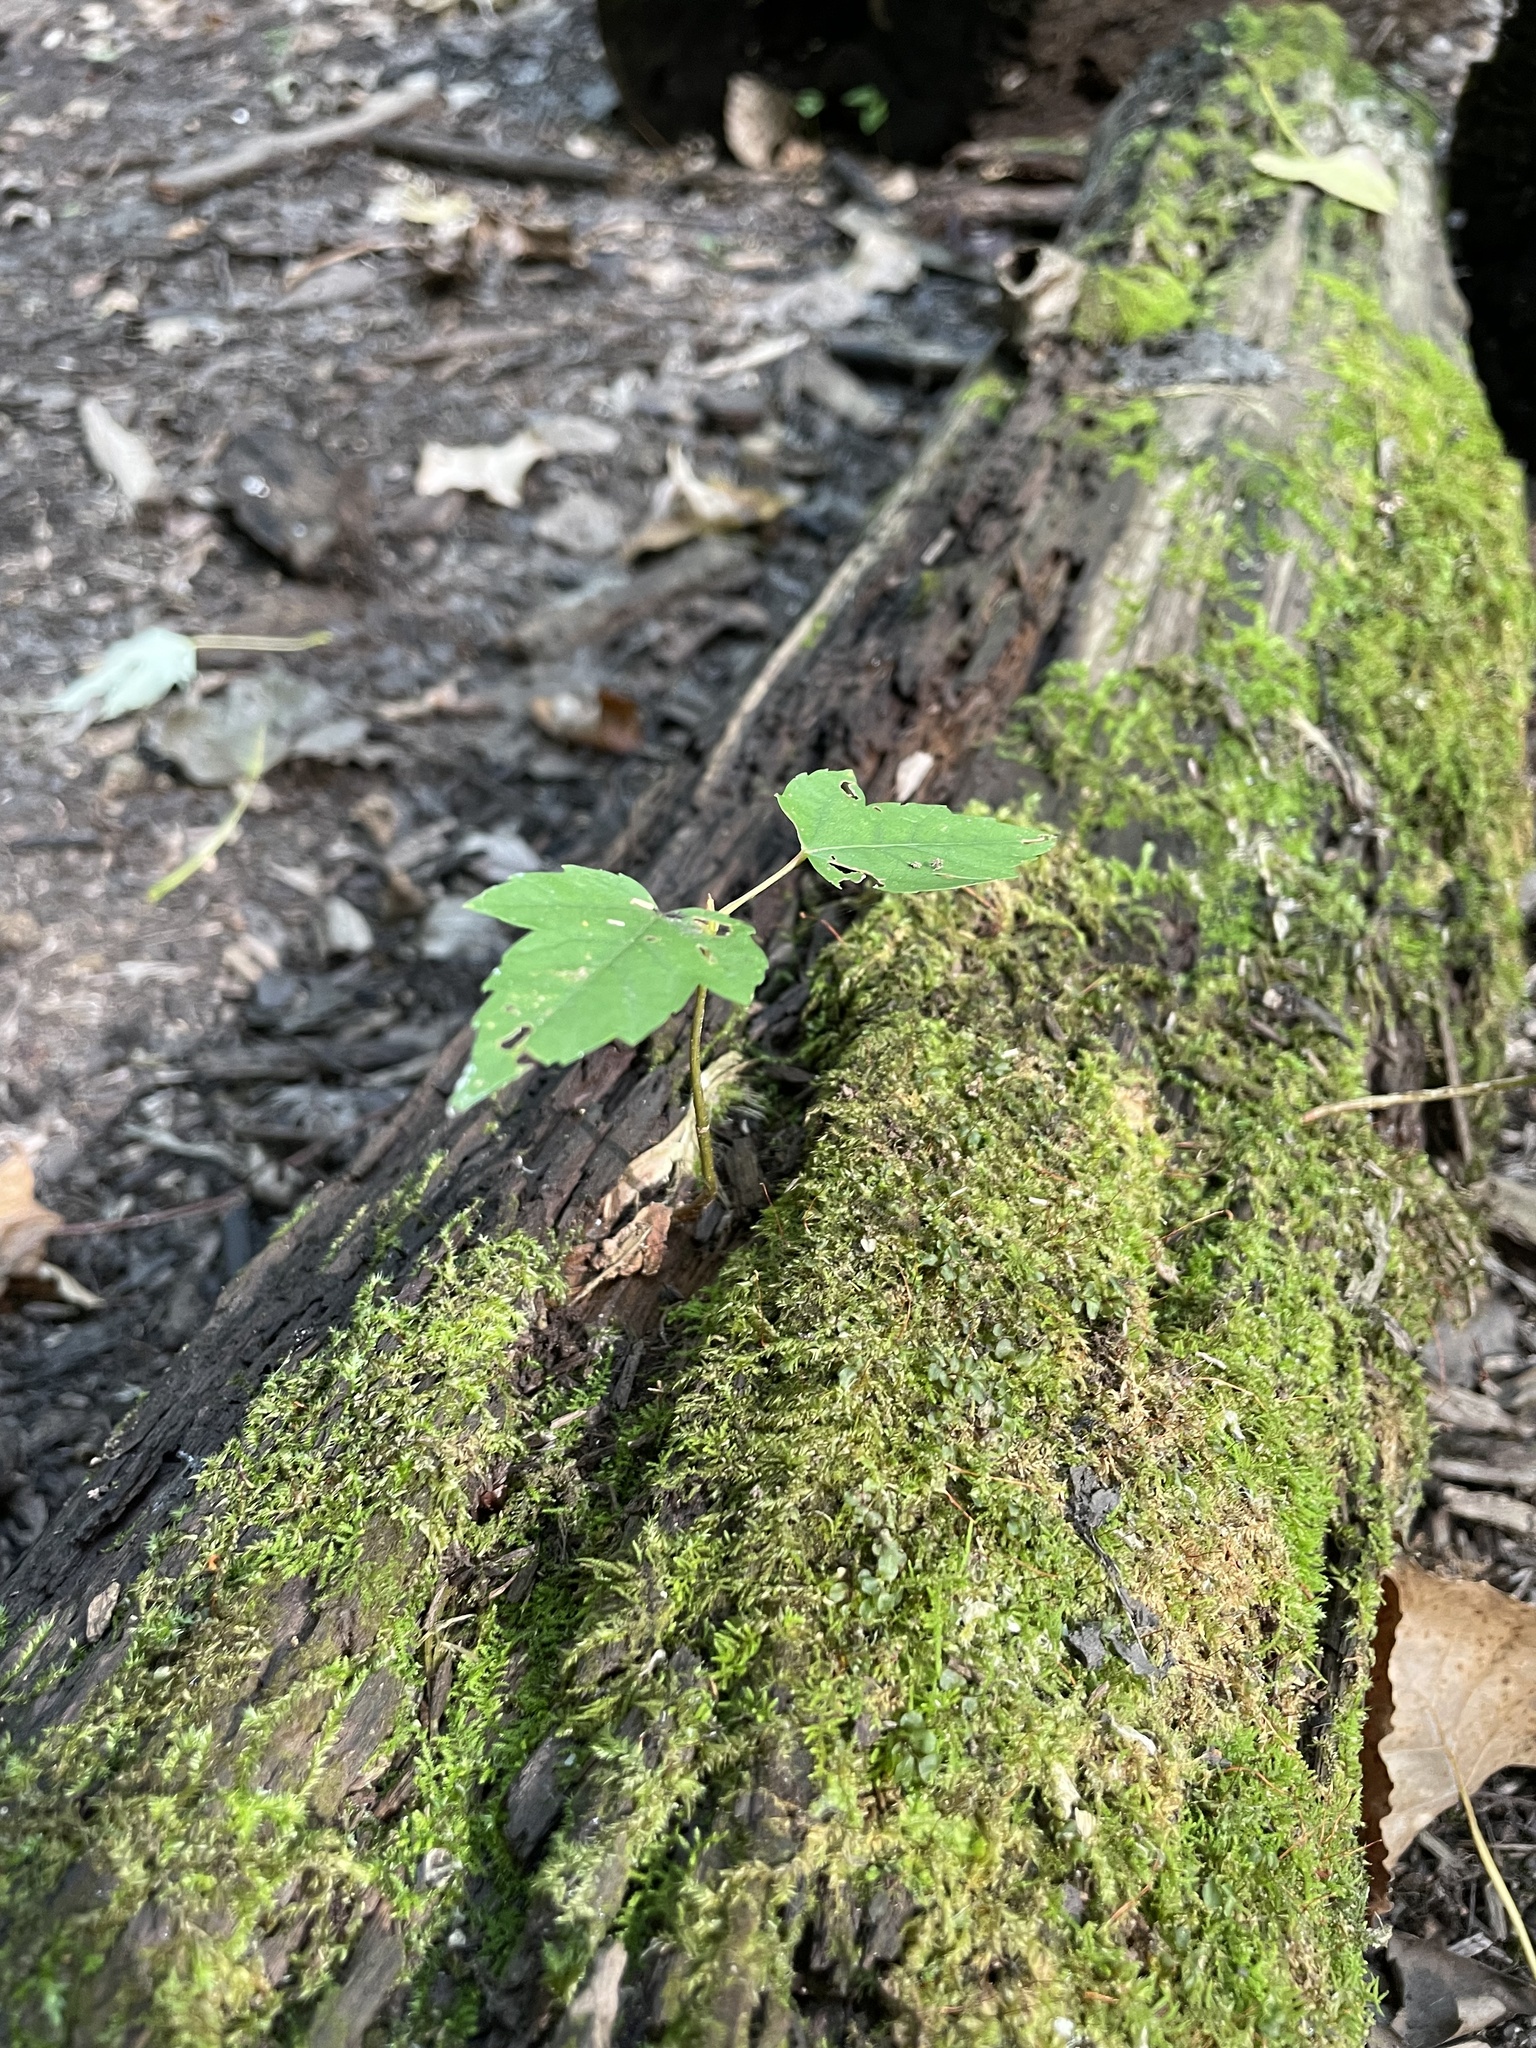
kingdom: Plantae
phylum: Tracheophyta
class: Magnoliopsida
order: Sapindales
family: Sapindaceae
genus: Acer
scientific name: Acer rubrum
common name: Red maple
